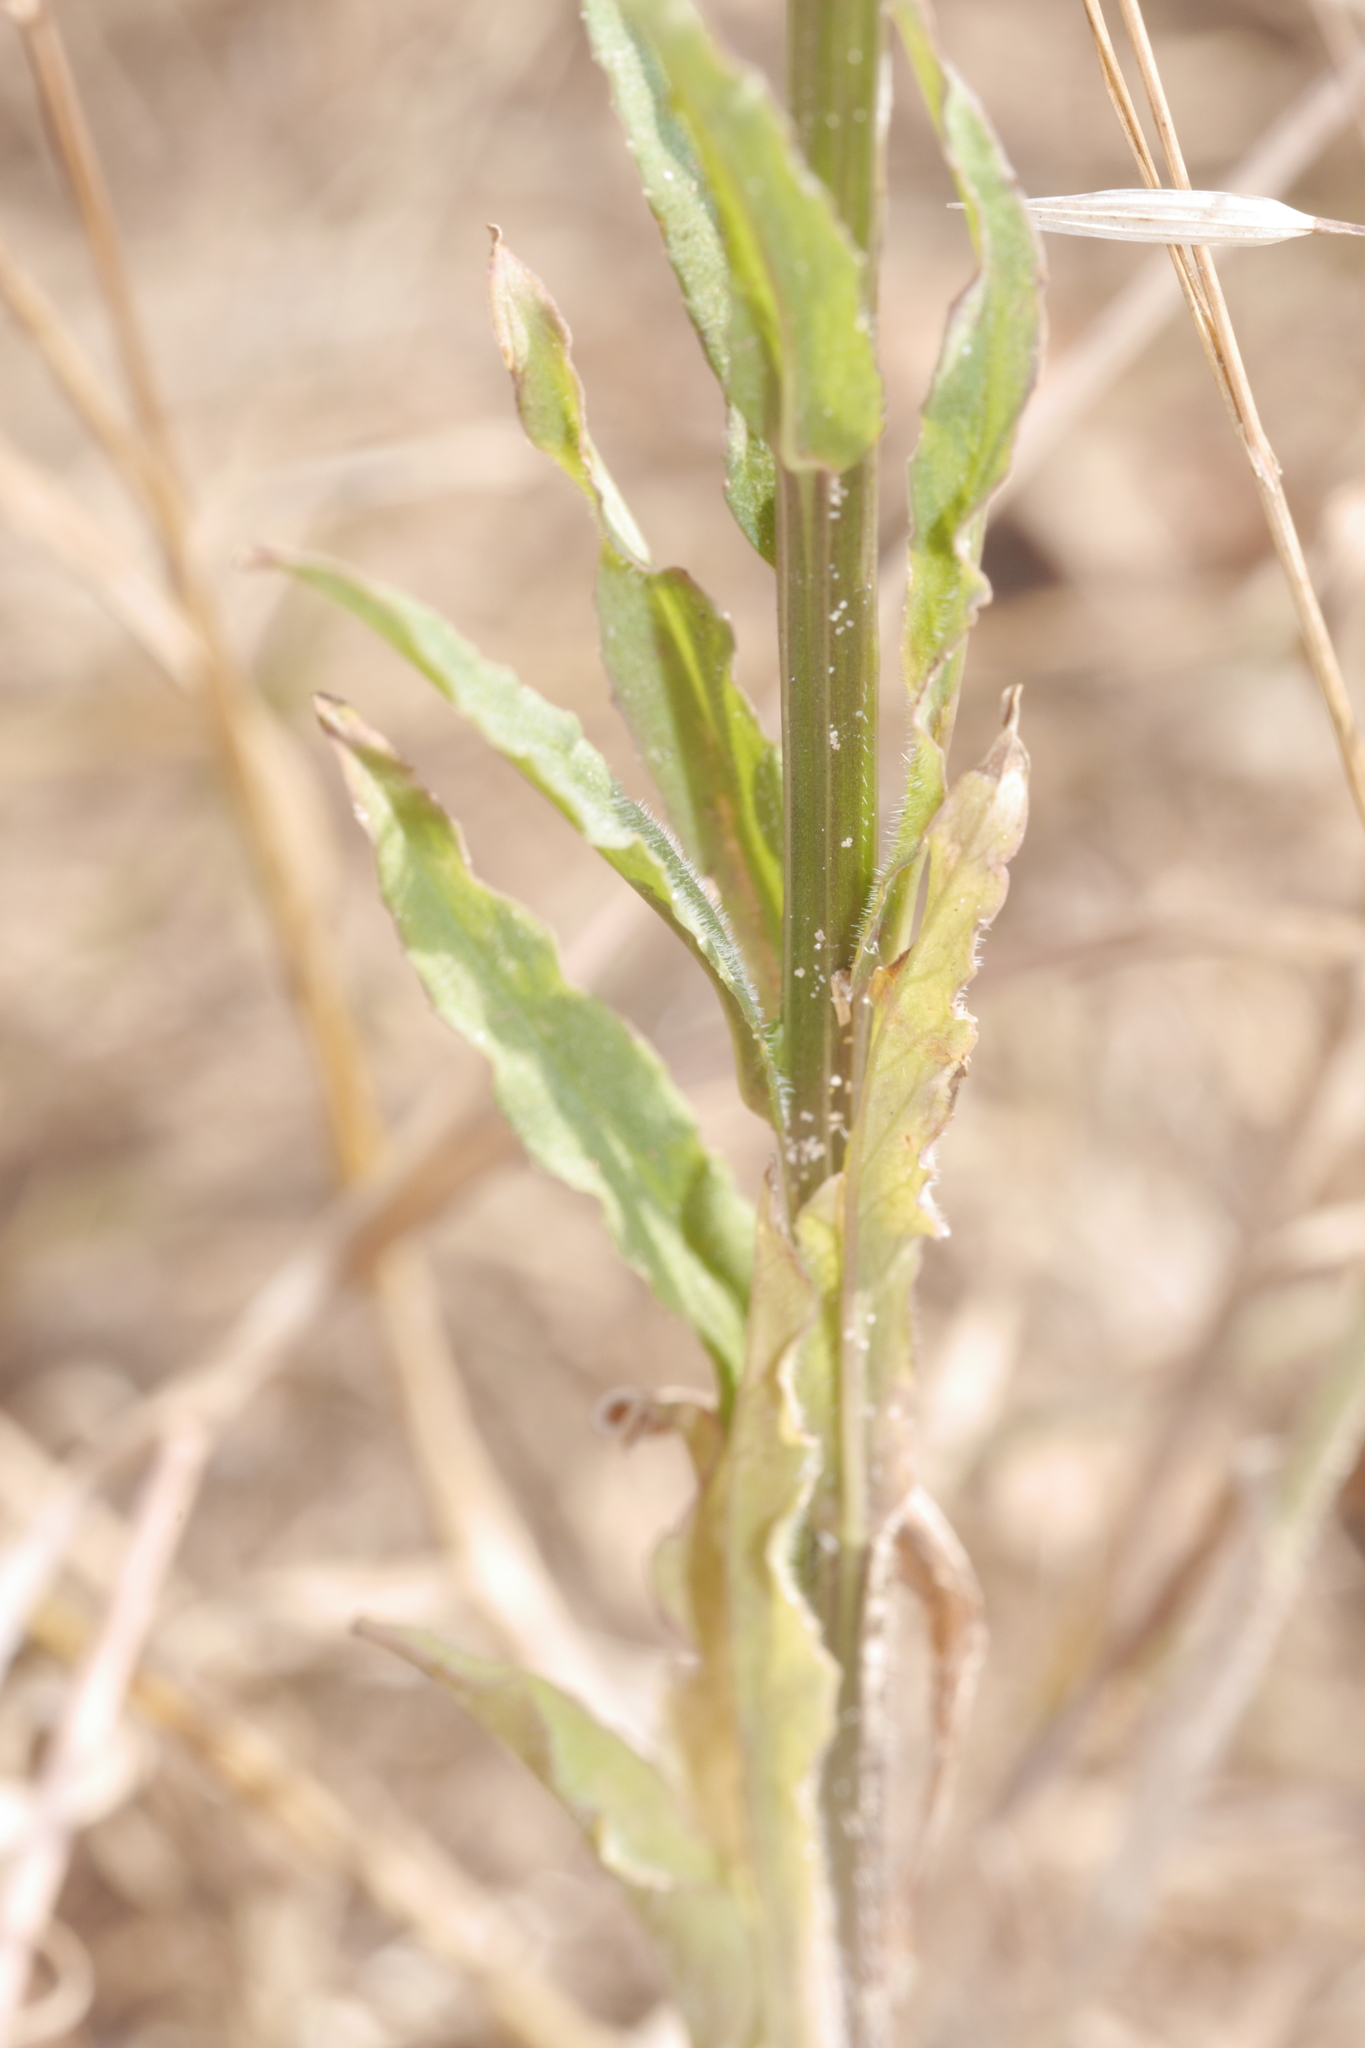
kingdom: Plantae
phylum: Tracheophyta
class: Magnoliopsida
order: Asterales
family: Campanulaceae
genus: Campanula
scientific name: Campanula rapunculus
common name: Rampion bellflower
